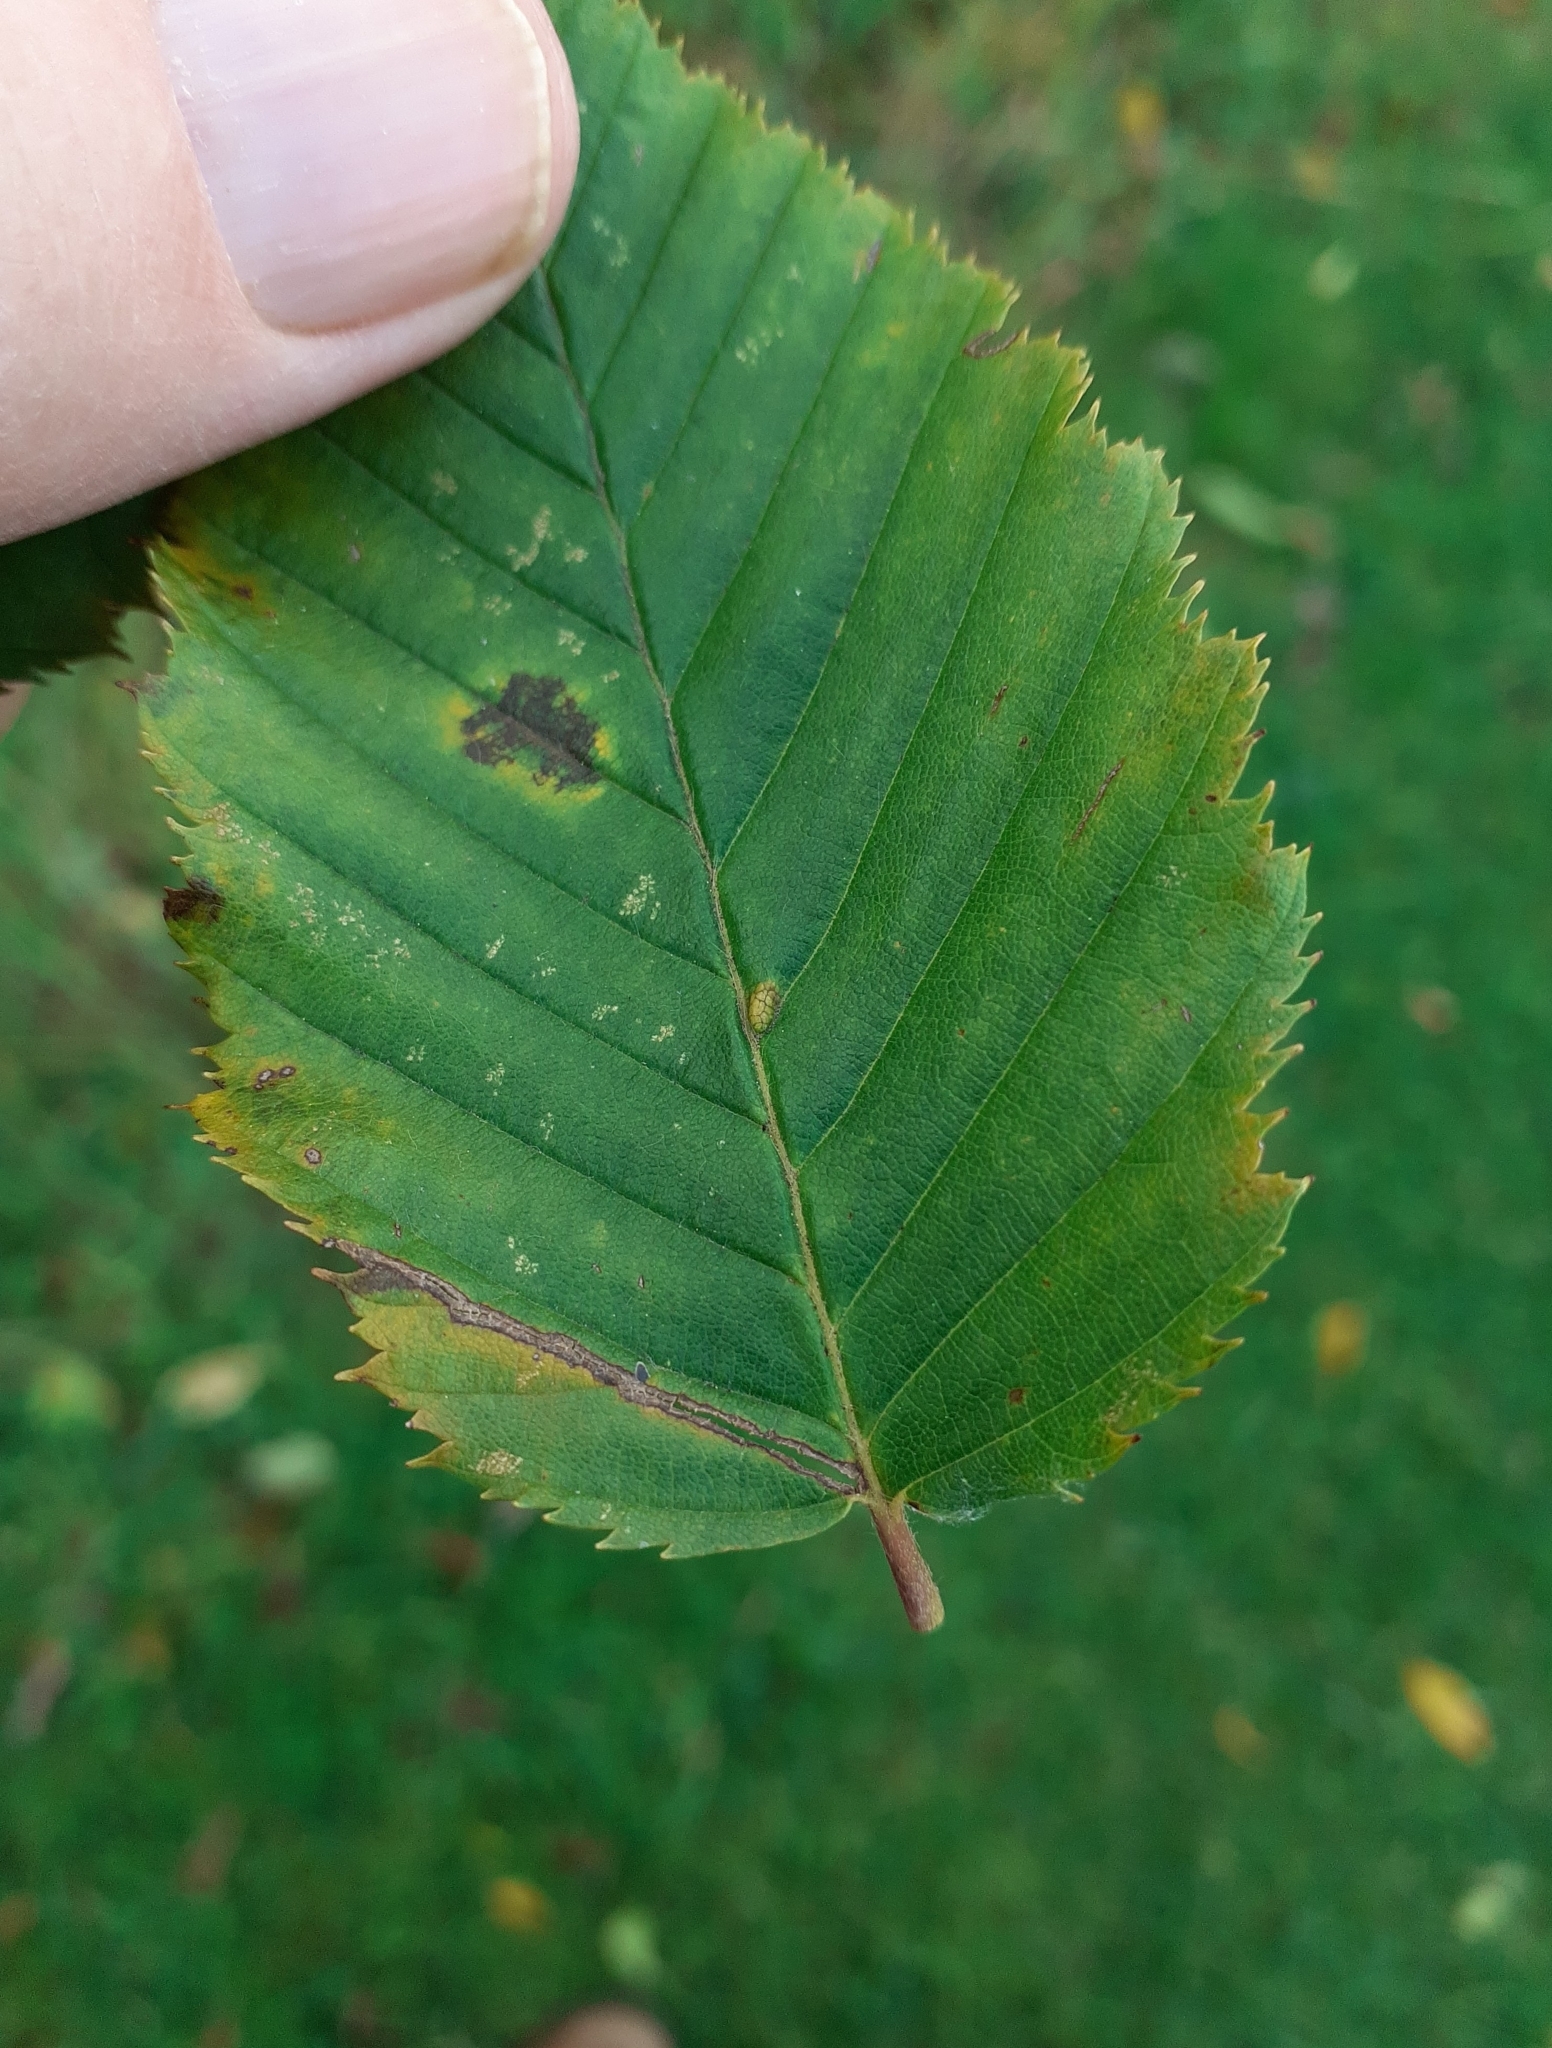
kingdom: Animalia
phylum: Arthropoda
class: Arachnida
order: Trombidiformes
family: Eriophyidae
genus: Aceria
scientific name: Aceria tenellus
